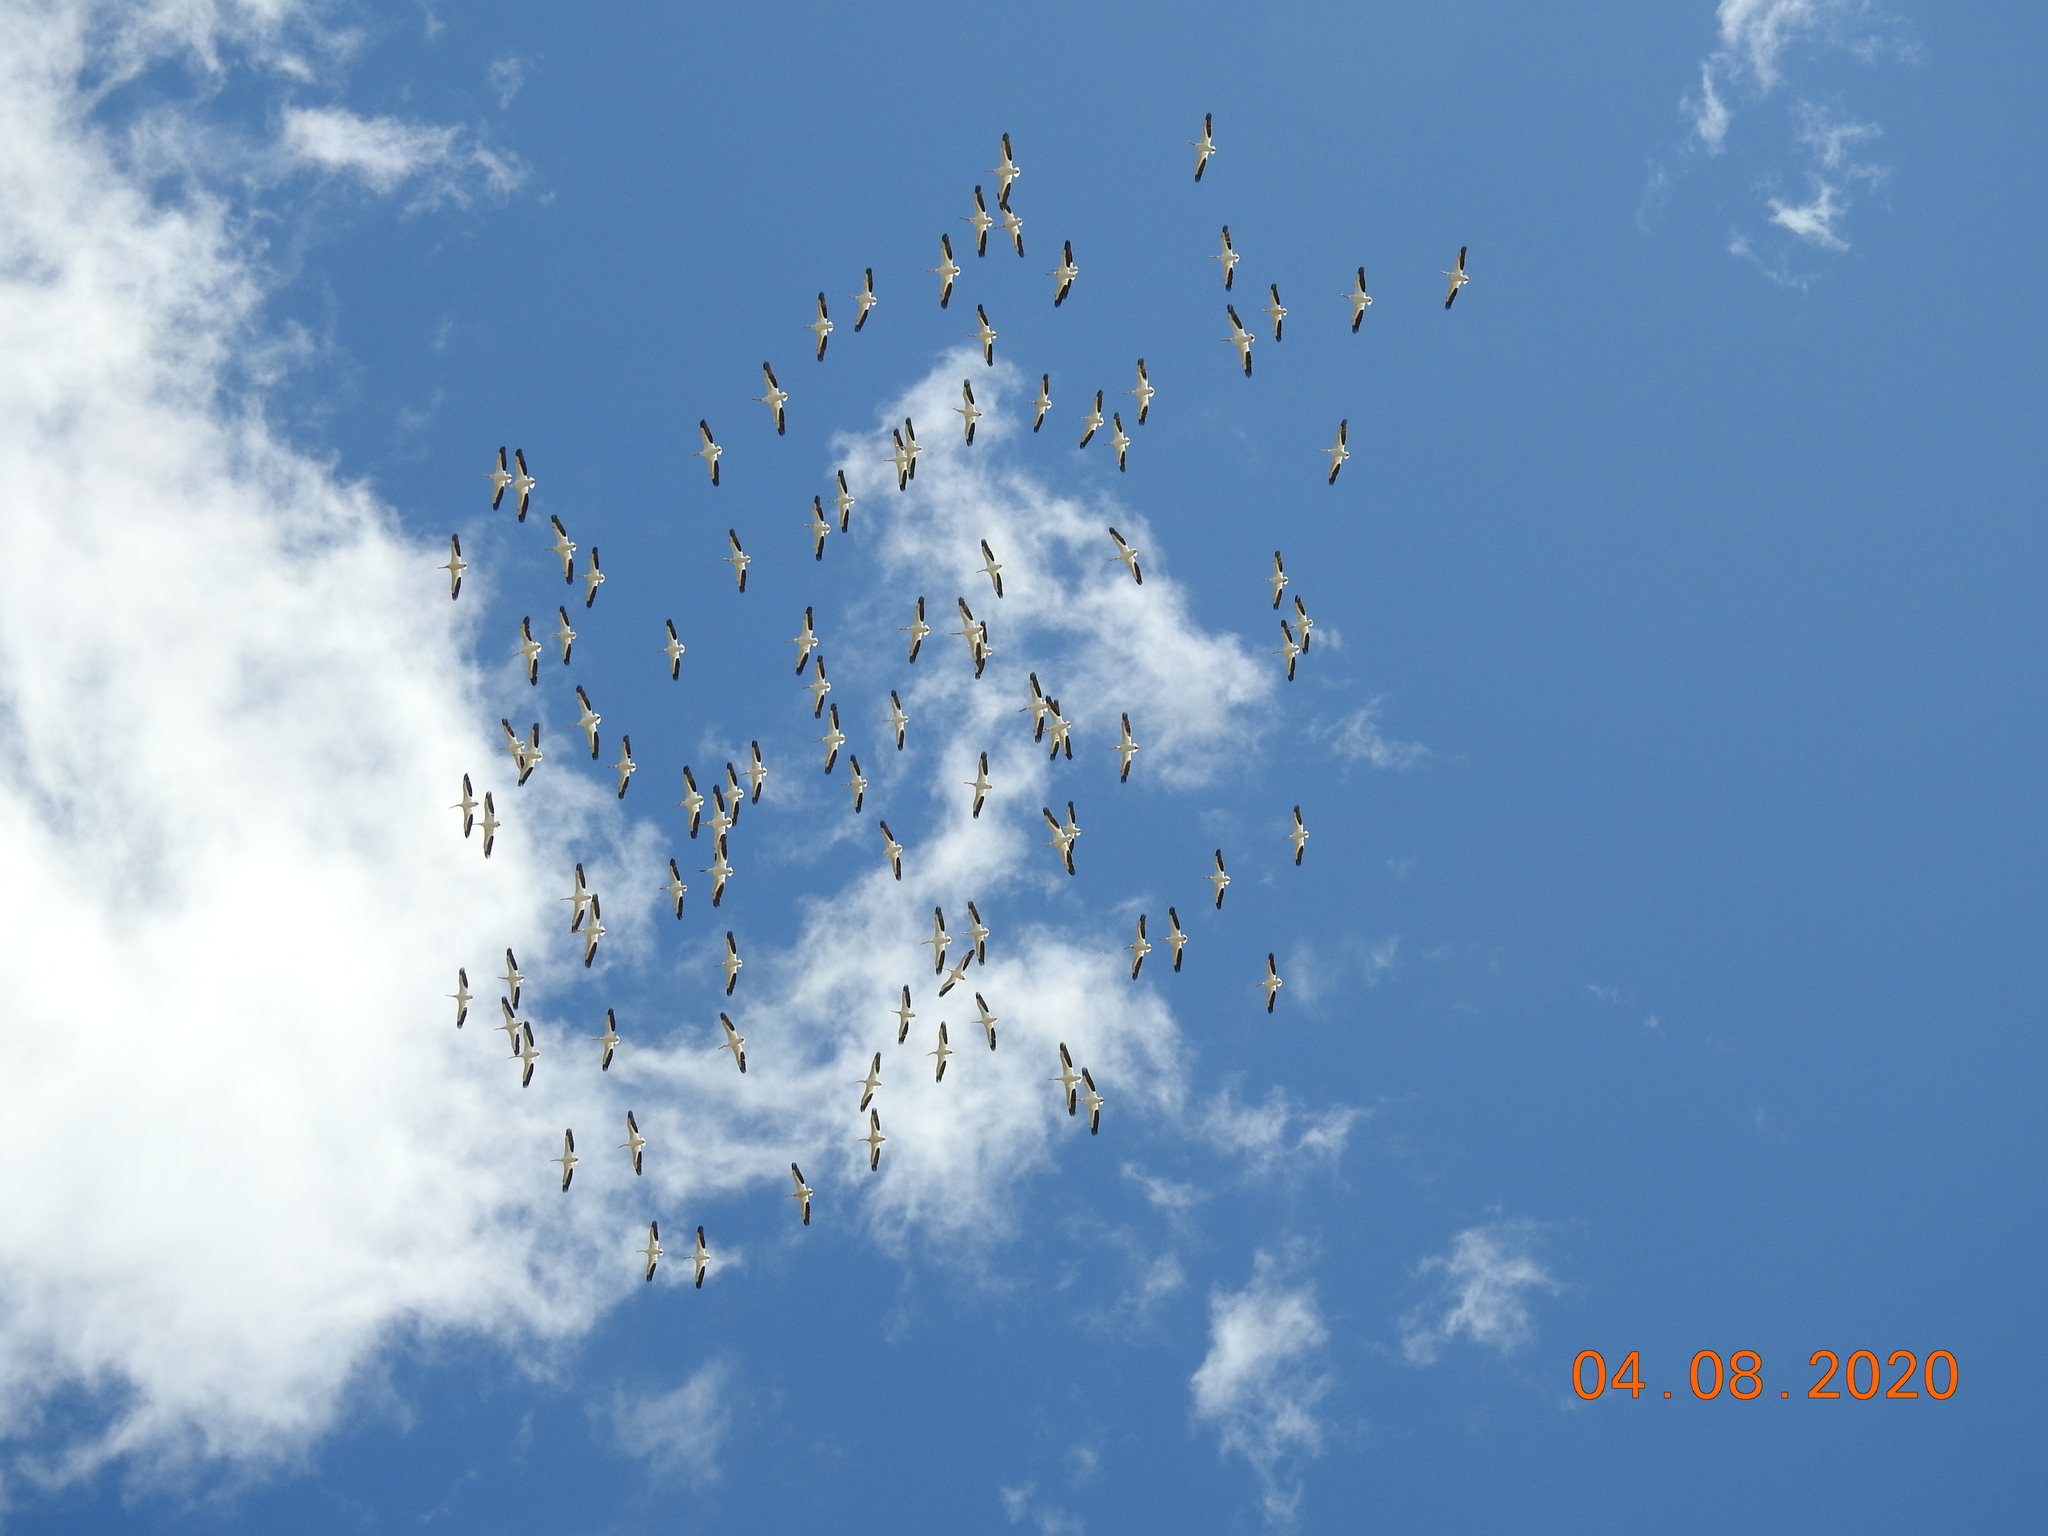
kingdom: Animalia
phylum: Chordata
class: Aves
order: Pelecaniformes
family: Pelecanidae
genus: Pelecanus
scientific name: Pelecanus erythrorhynchos
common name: American white pelican
